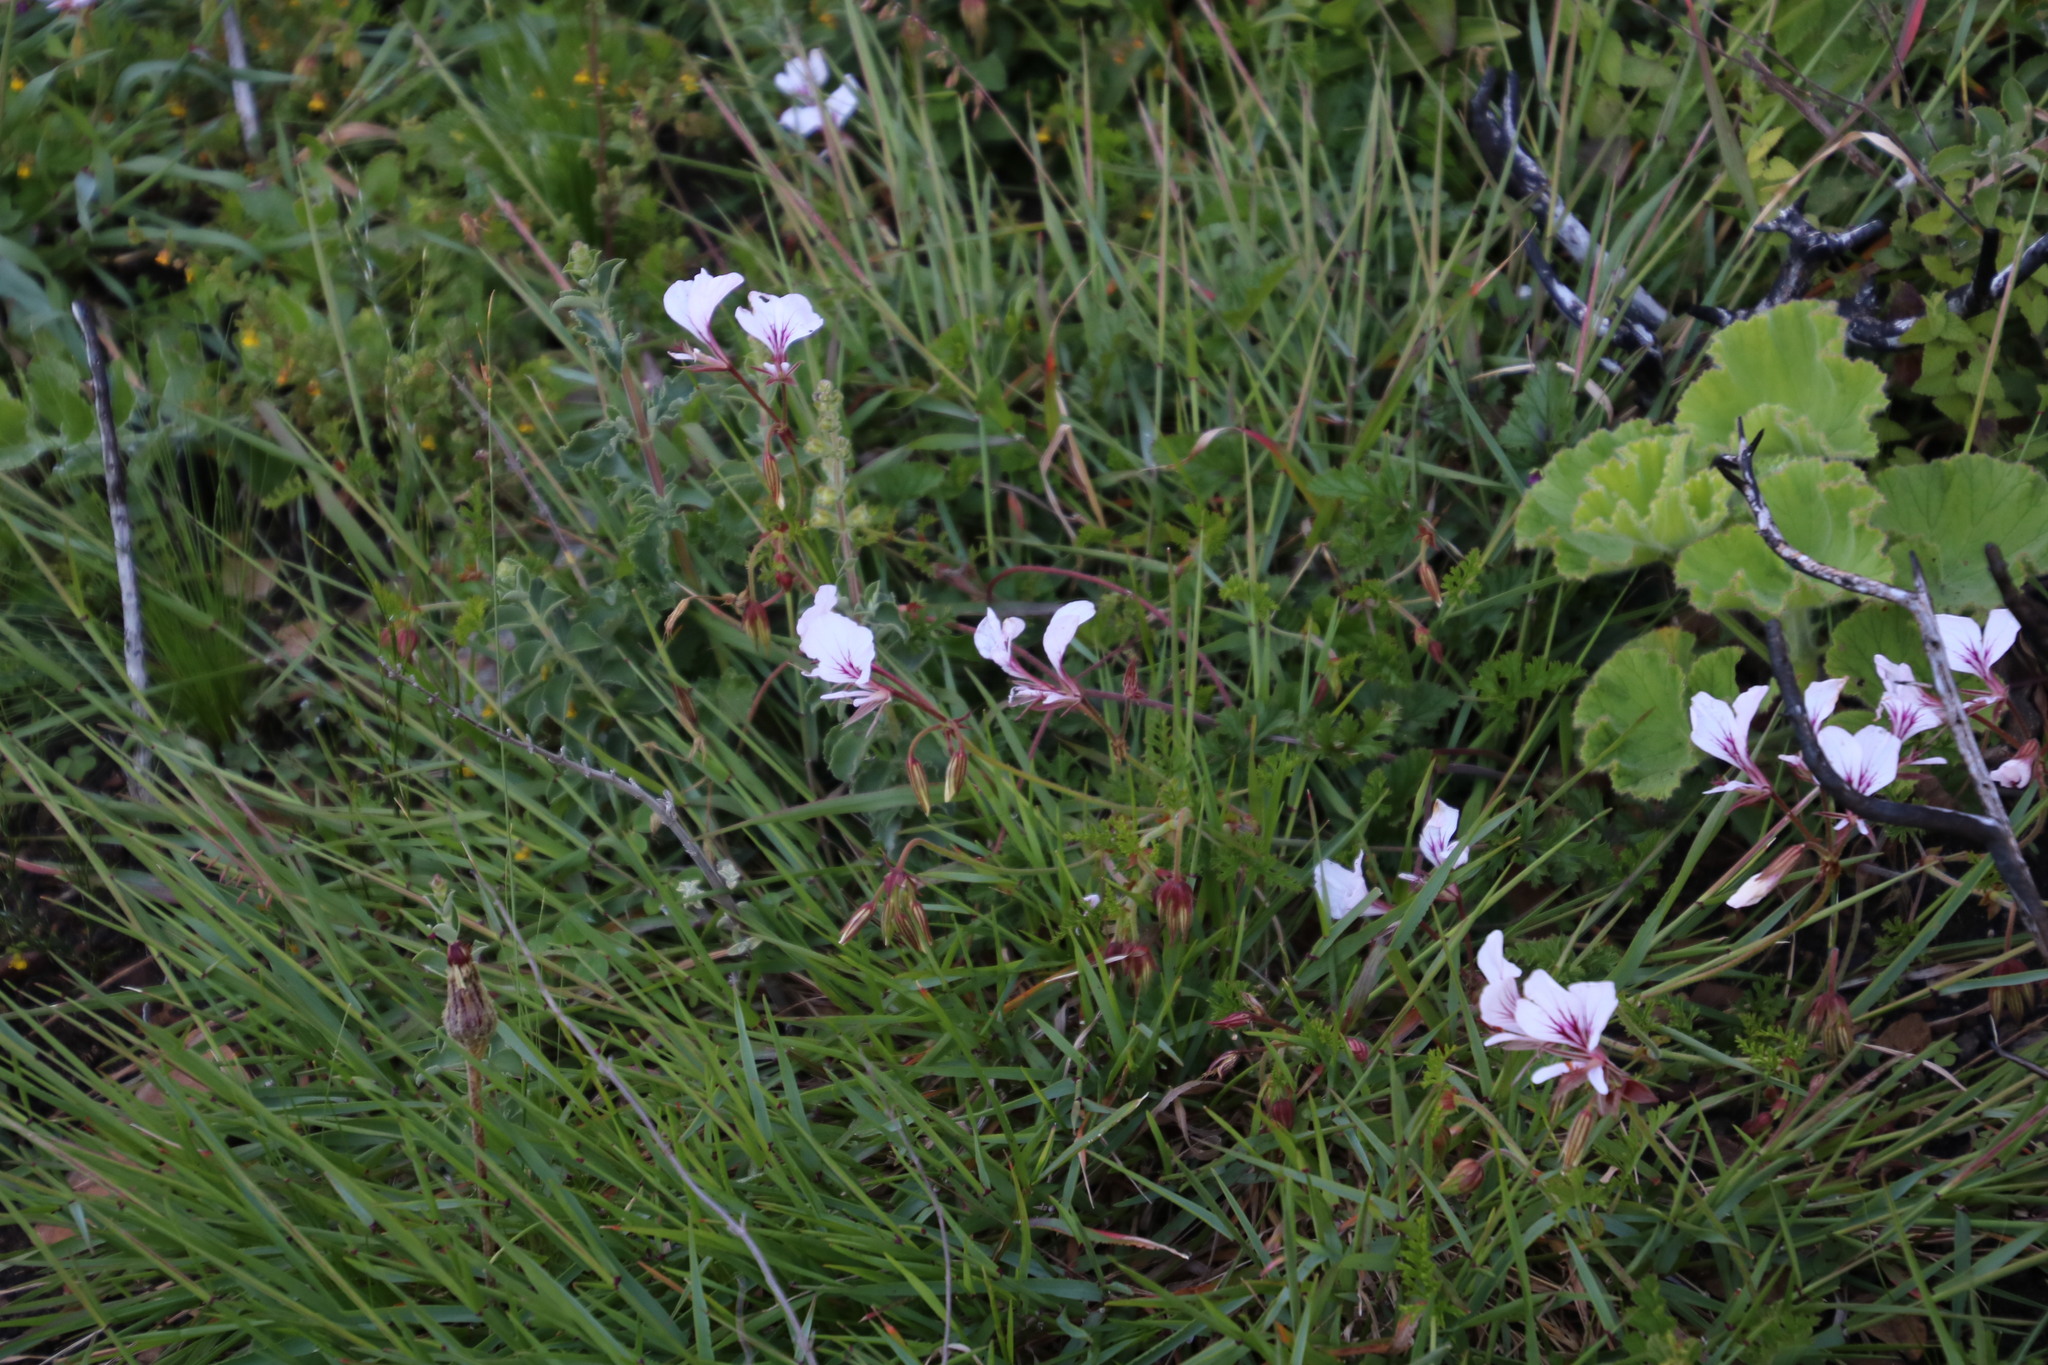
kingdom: Plantae
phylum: Tracheophyta
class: Magnoliopsida
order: Geraniales
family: Geraniaceae
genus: Pelargonium
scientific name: Pelargonium myrrhifolium
